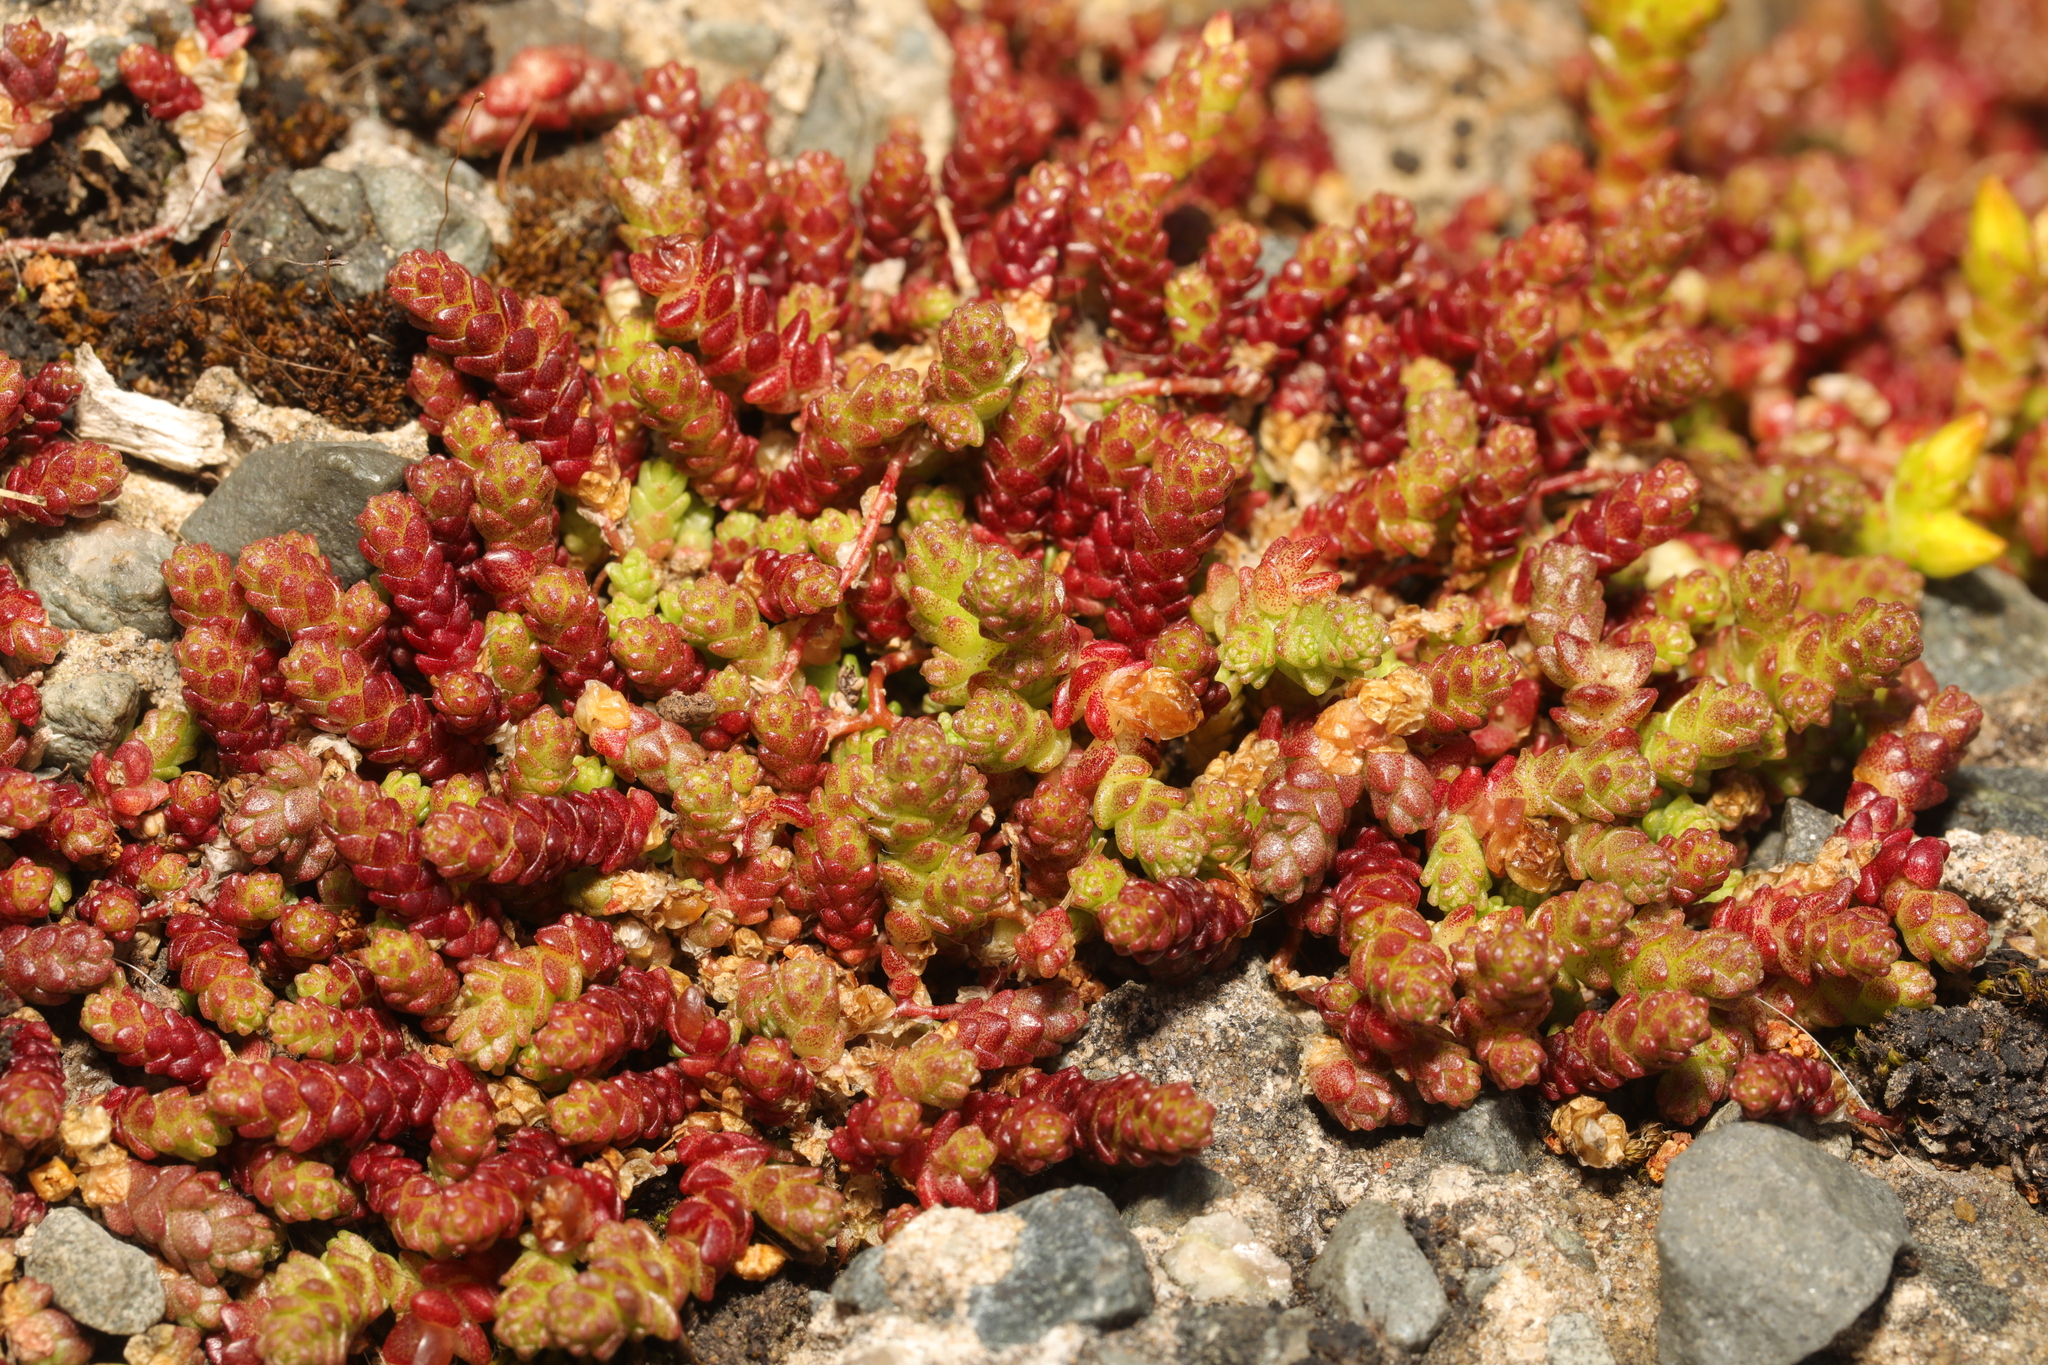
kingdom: Plantae
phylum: Tracheophyta
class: Magnoliopsida
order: Saxifragales
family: Crassulaceae
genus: Sedum
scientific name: Sedum acre
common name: Biting stonecrop
